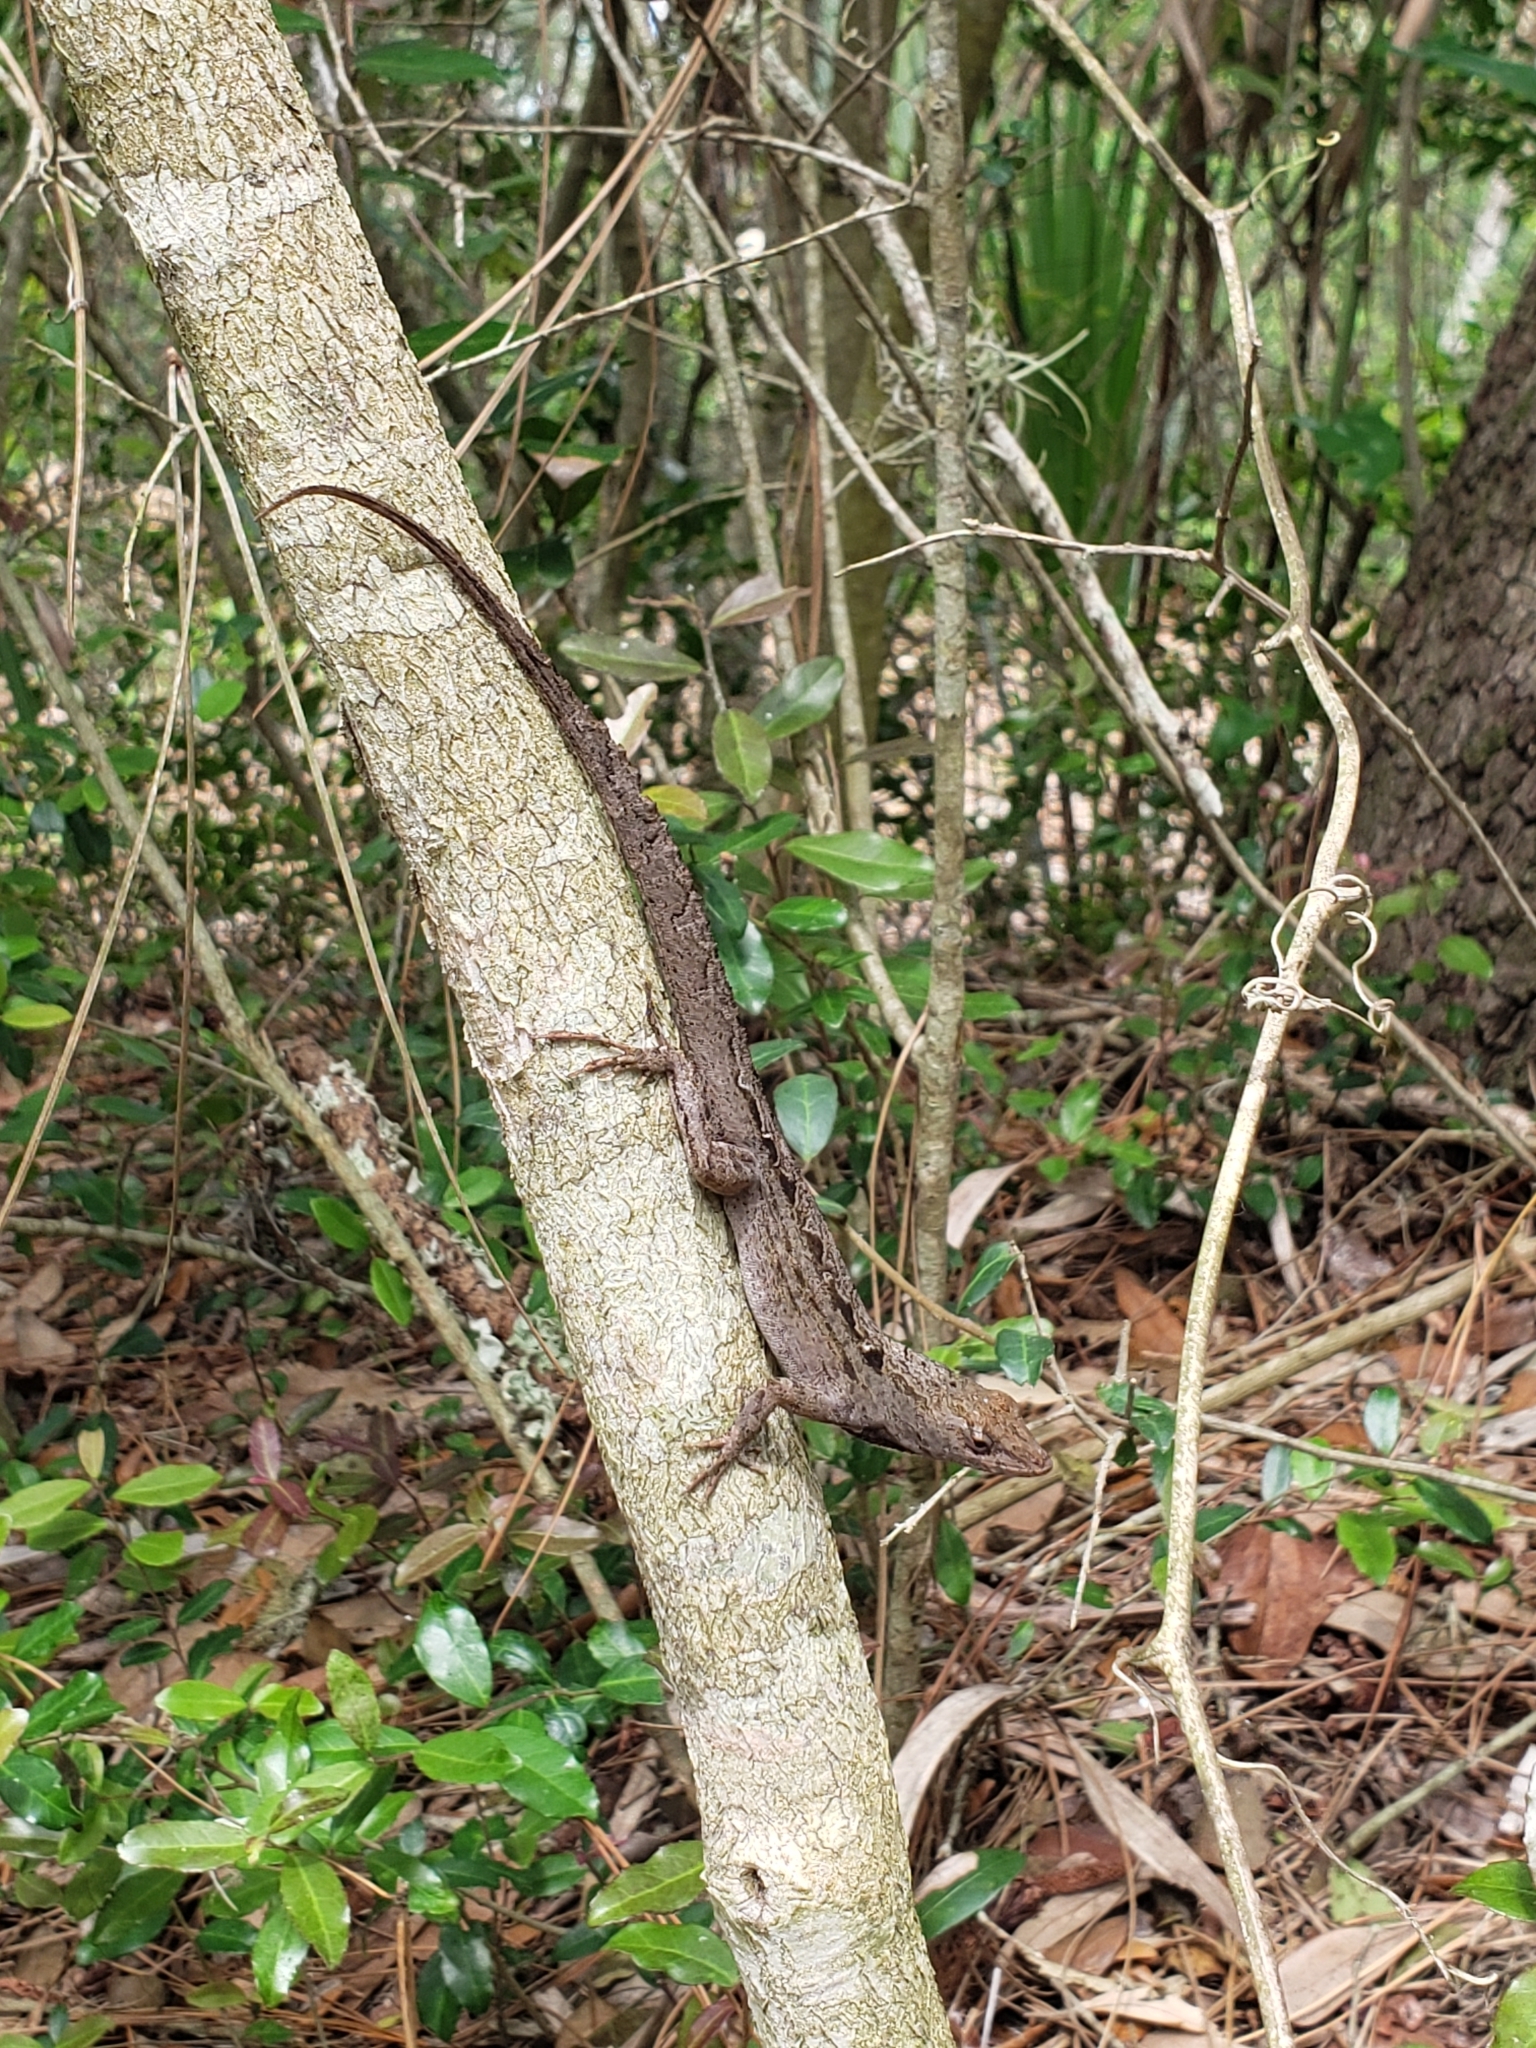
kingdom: Animalia
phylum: Chordata
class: Squamata
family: Dactyloidae
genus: Anolis
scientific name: Anolis sagrei
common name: Brown anole
